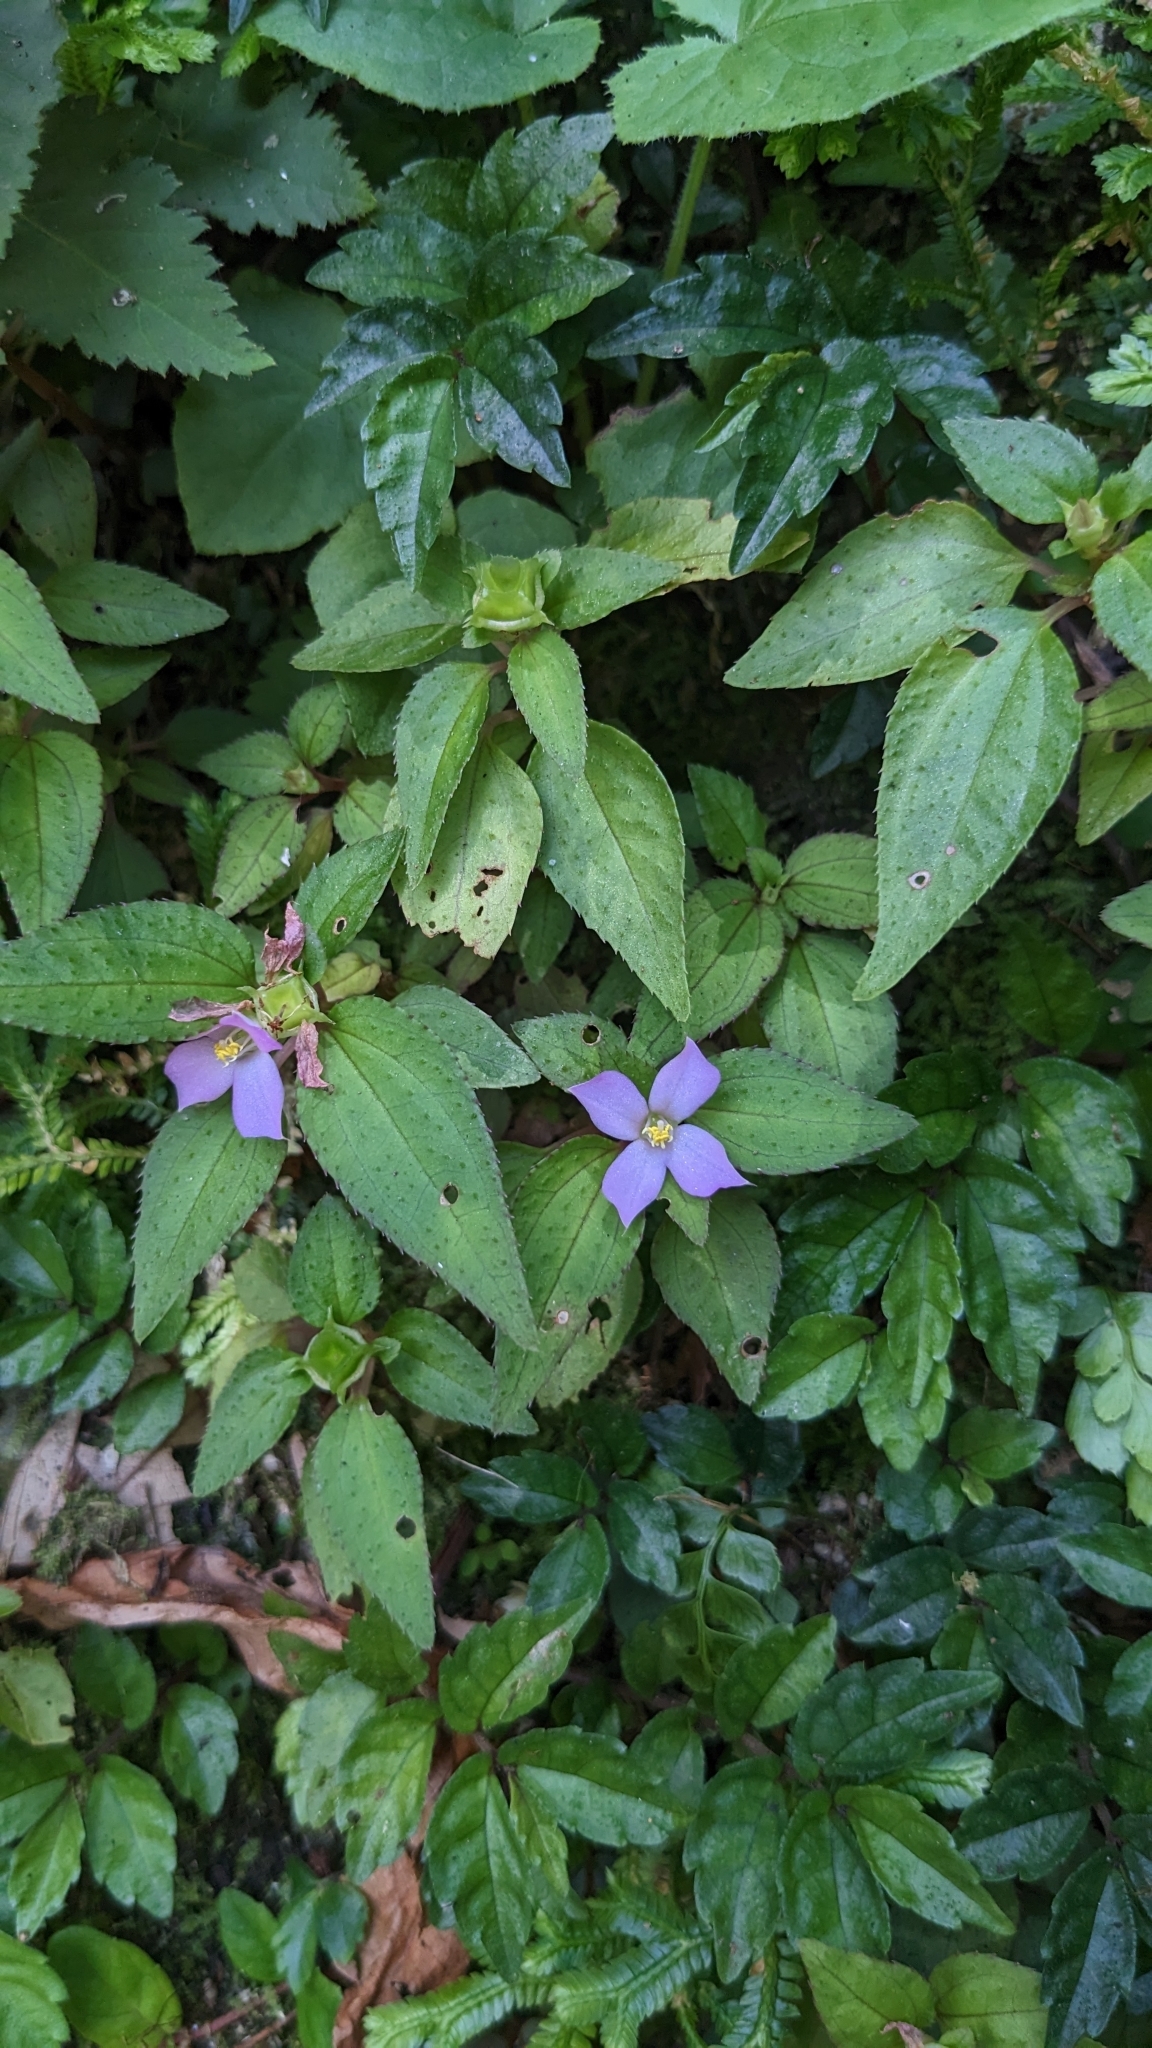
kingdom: Plantae
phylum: Tracheophyta
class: Magnoliopsida
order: Myrtales
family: Melastomataceae
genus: Sarcopyramis
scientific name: Sarcopyramis napalensis
